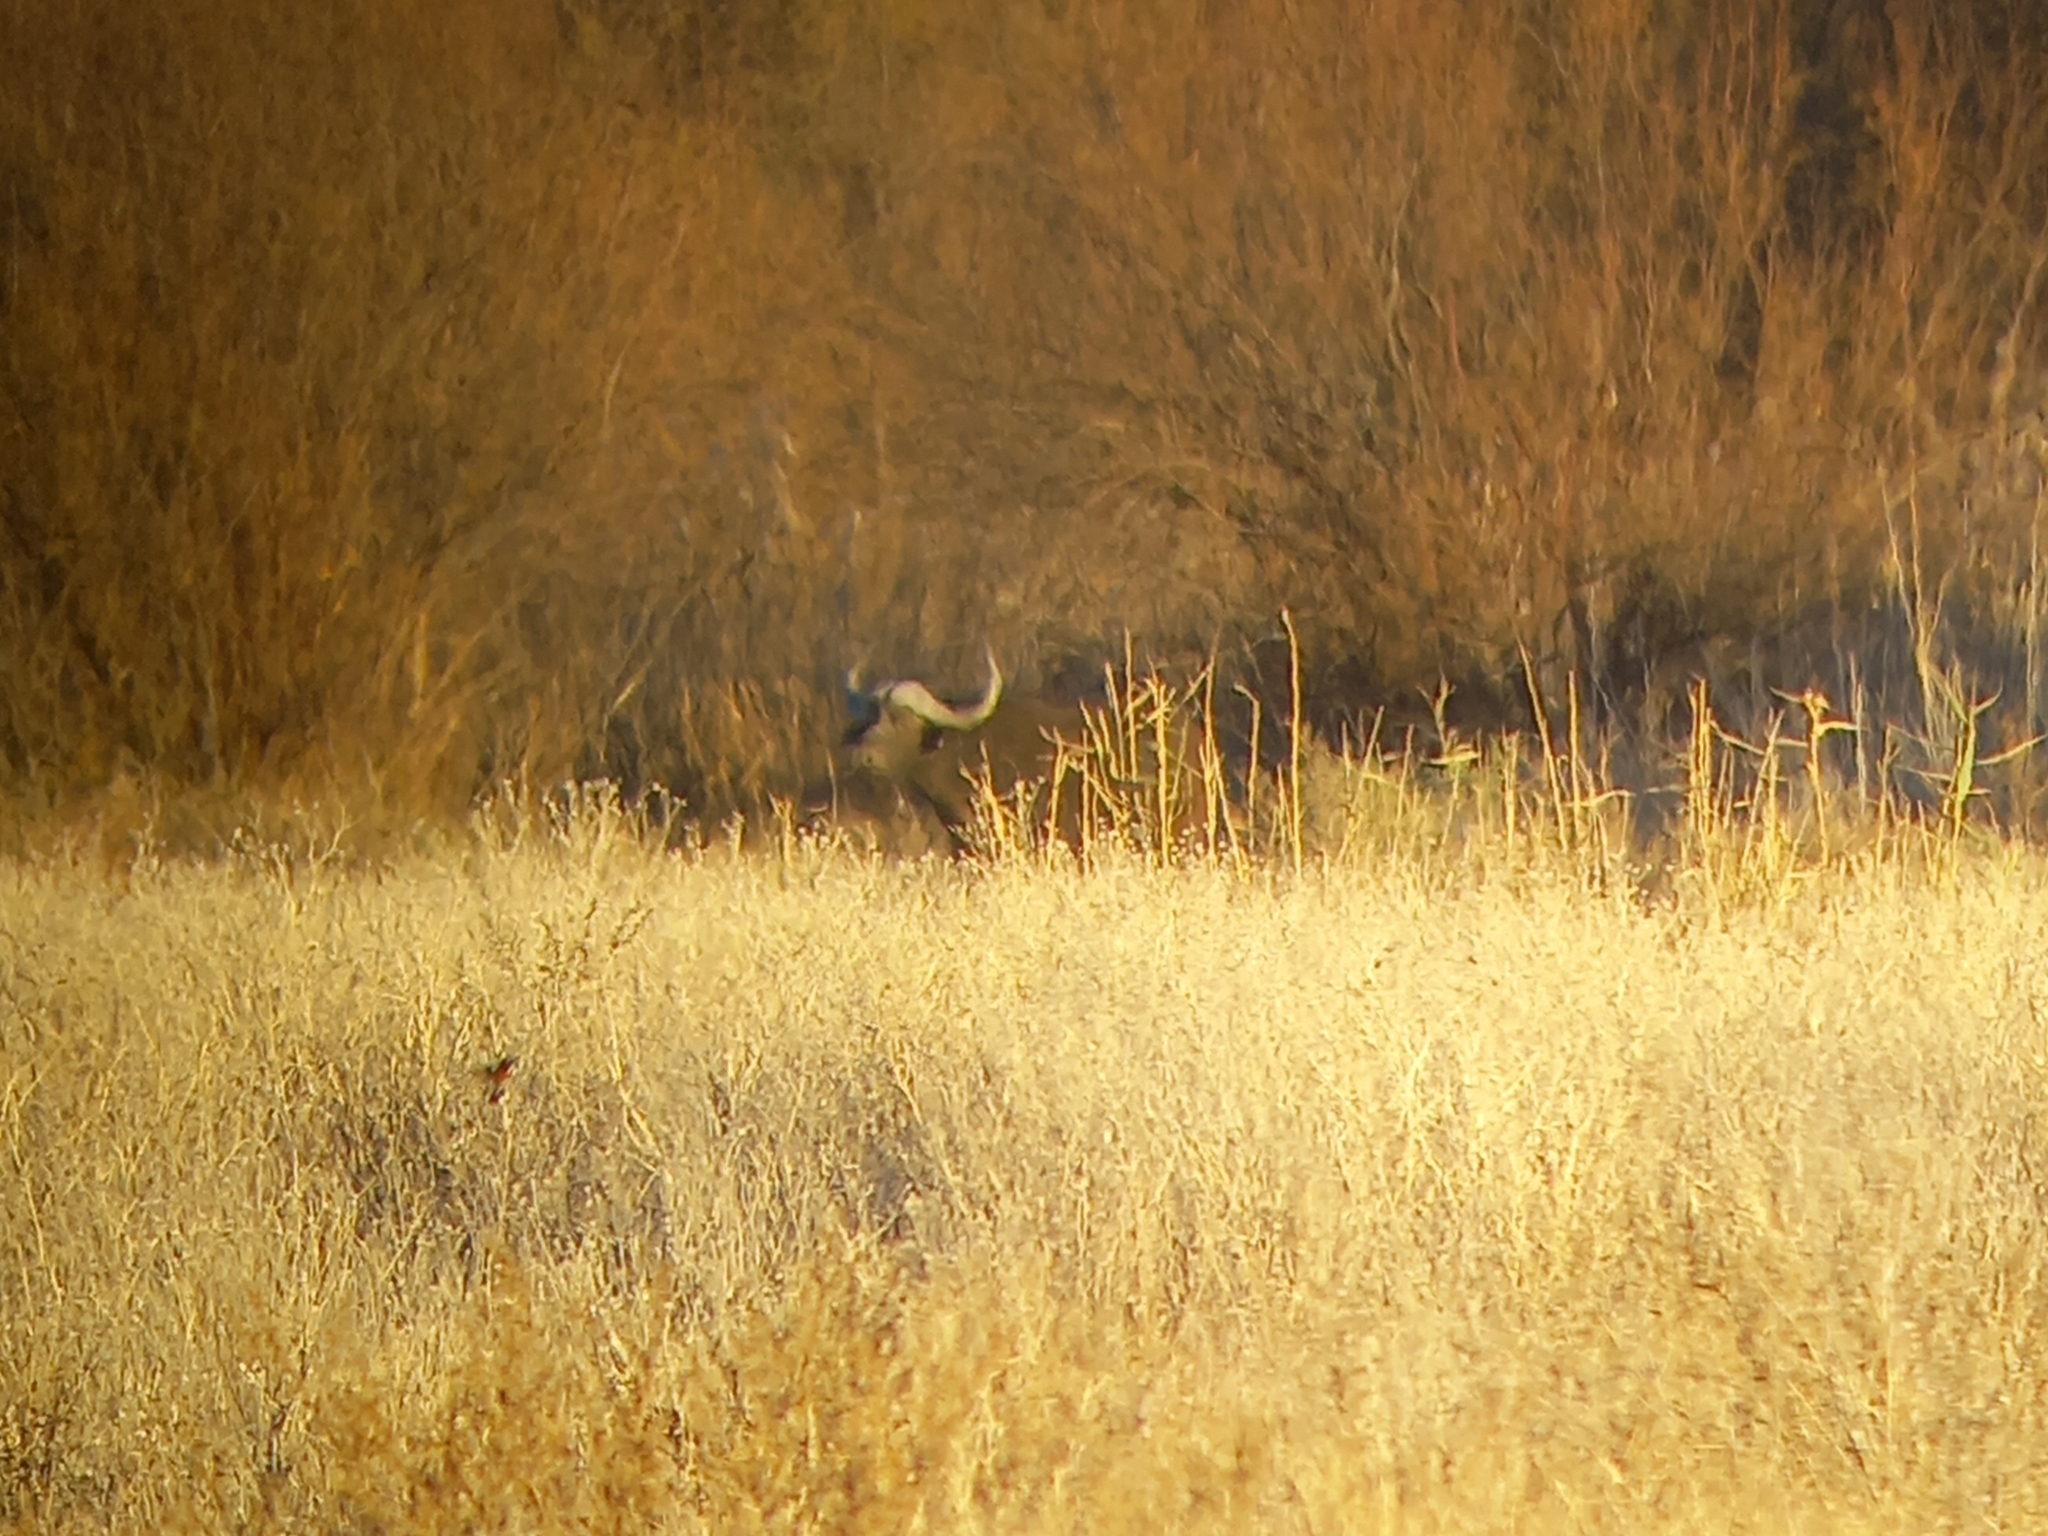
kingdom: Animalia
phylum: Chordata
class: Mammalia
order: Artiodactyla
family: Bovidae
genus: Syncerus
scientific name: Syncerus caffer
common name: African buffalo
